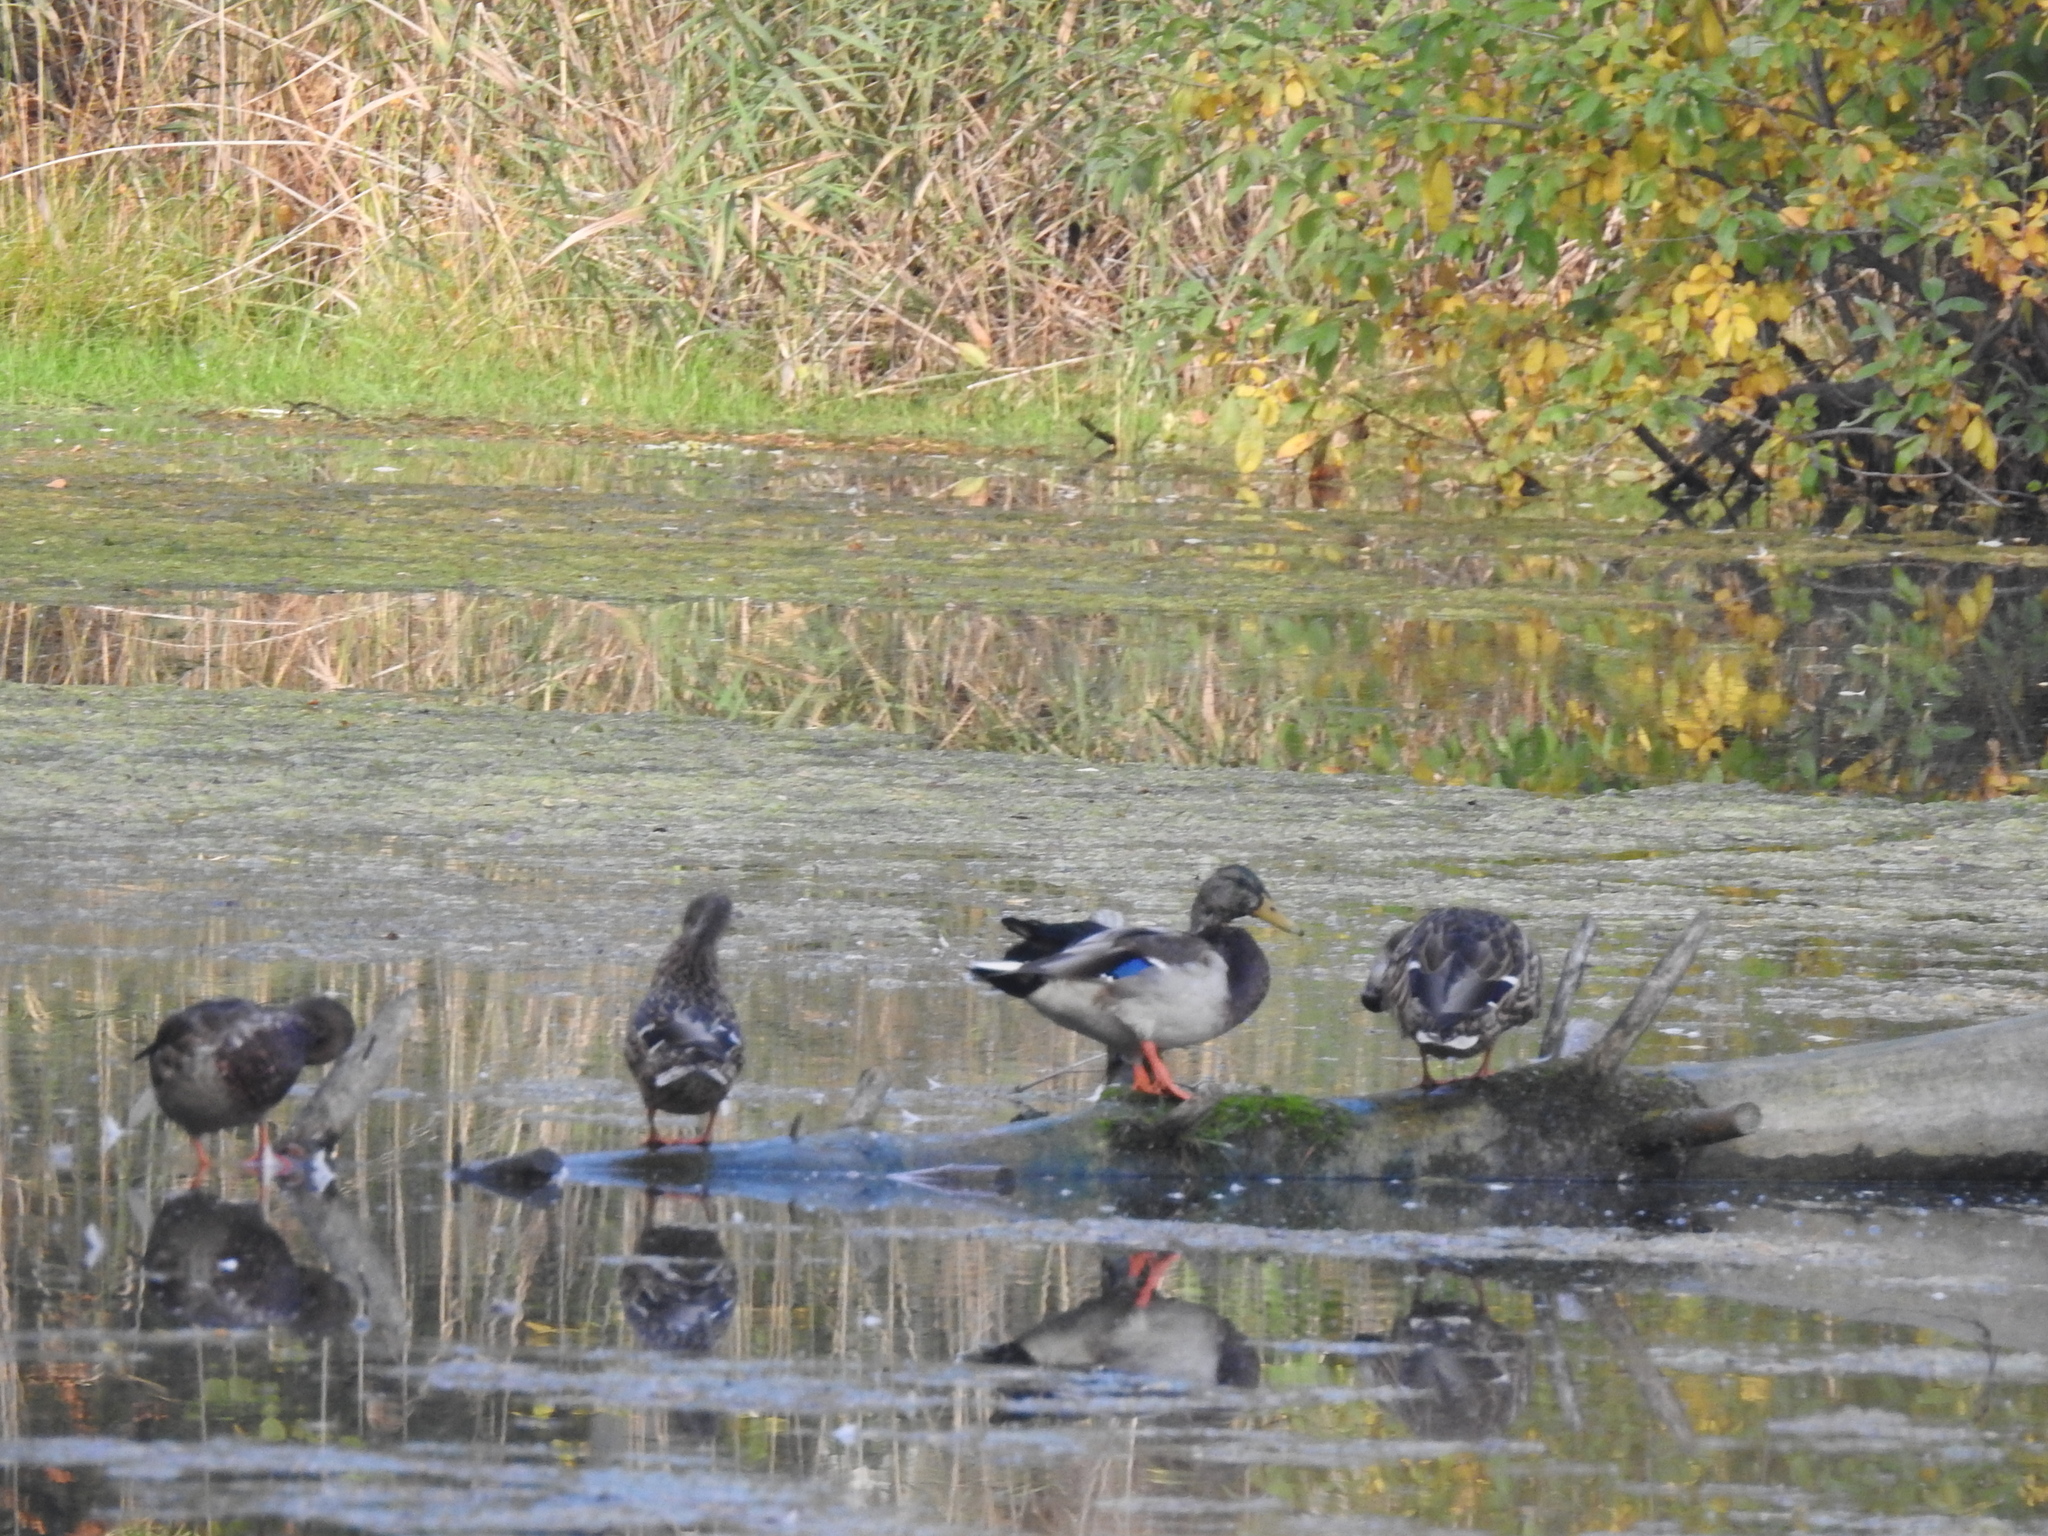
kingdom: Animalia
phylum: Chordata
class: Aves
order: Anseriformes
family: Anatidae
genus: Anas
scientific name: Anas platyrhynchos
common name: Mallard
